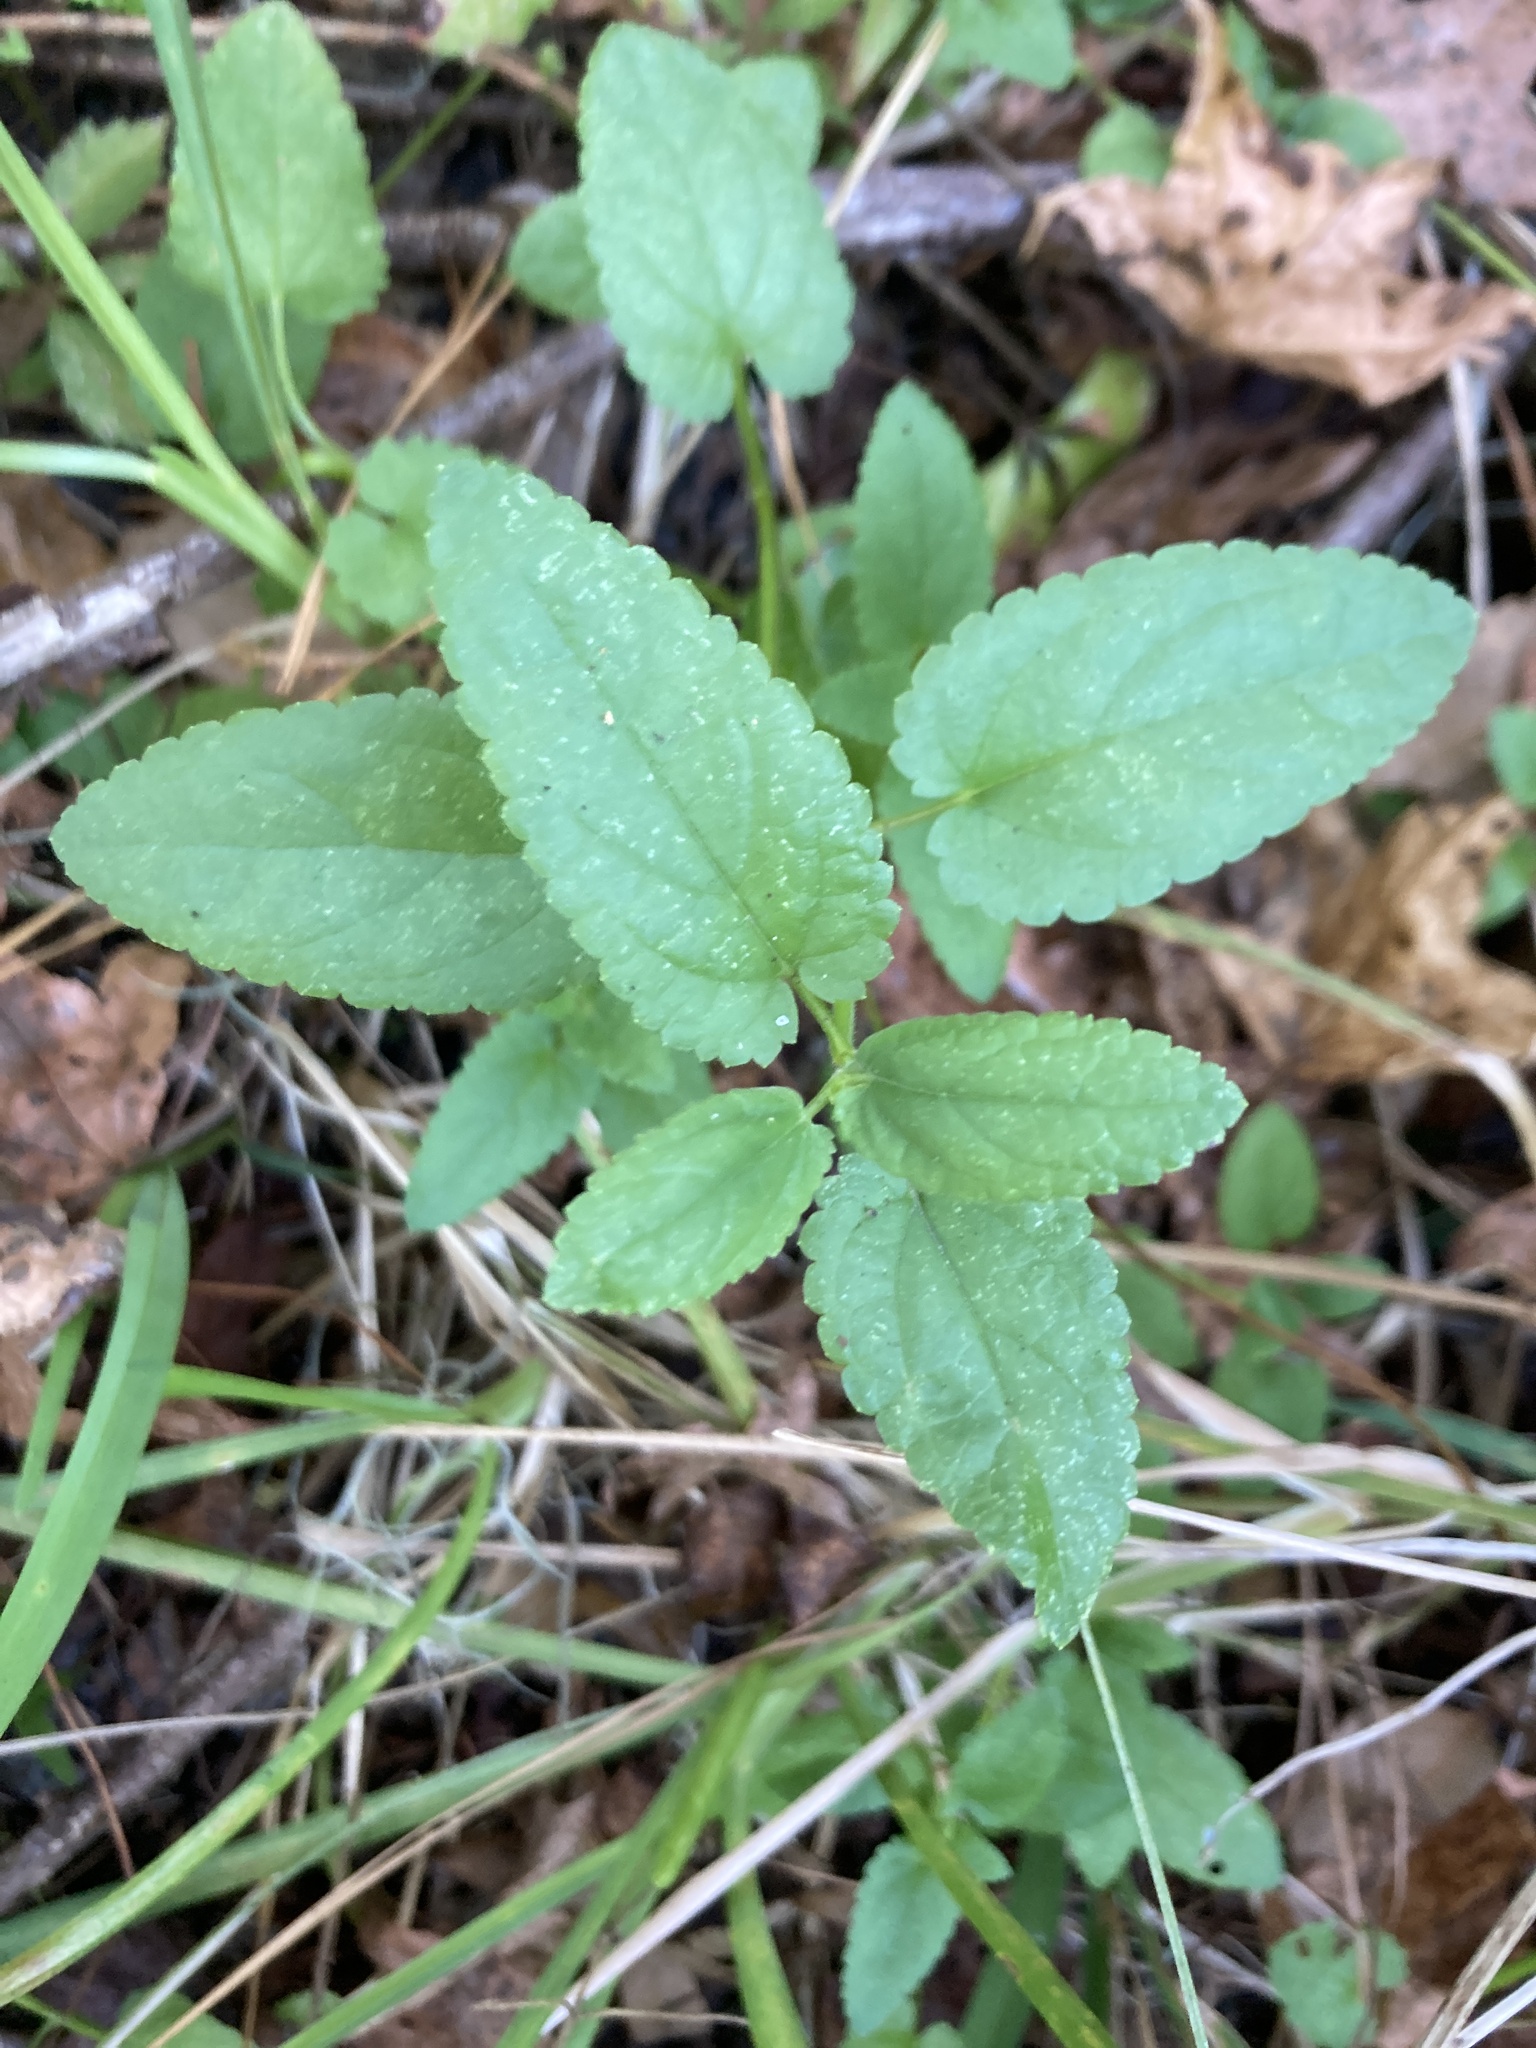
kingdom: Plantae
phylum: Tracheophyta
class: Magnoliopsida
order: Lamiales
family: Lamiaceae
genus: Stachys
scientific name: Stachys floridana
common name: Florida betony
